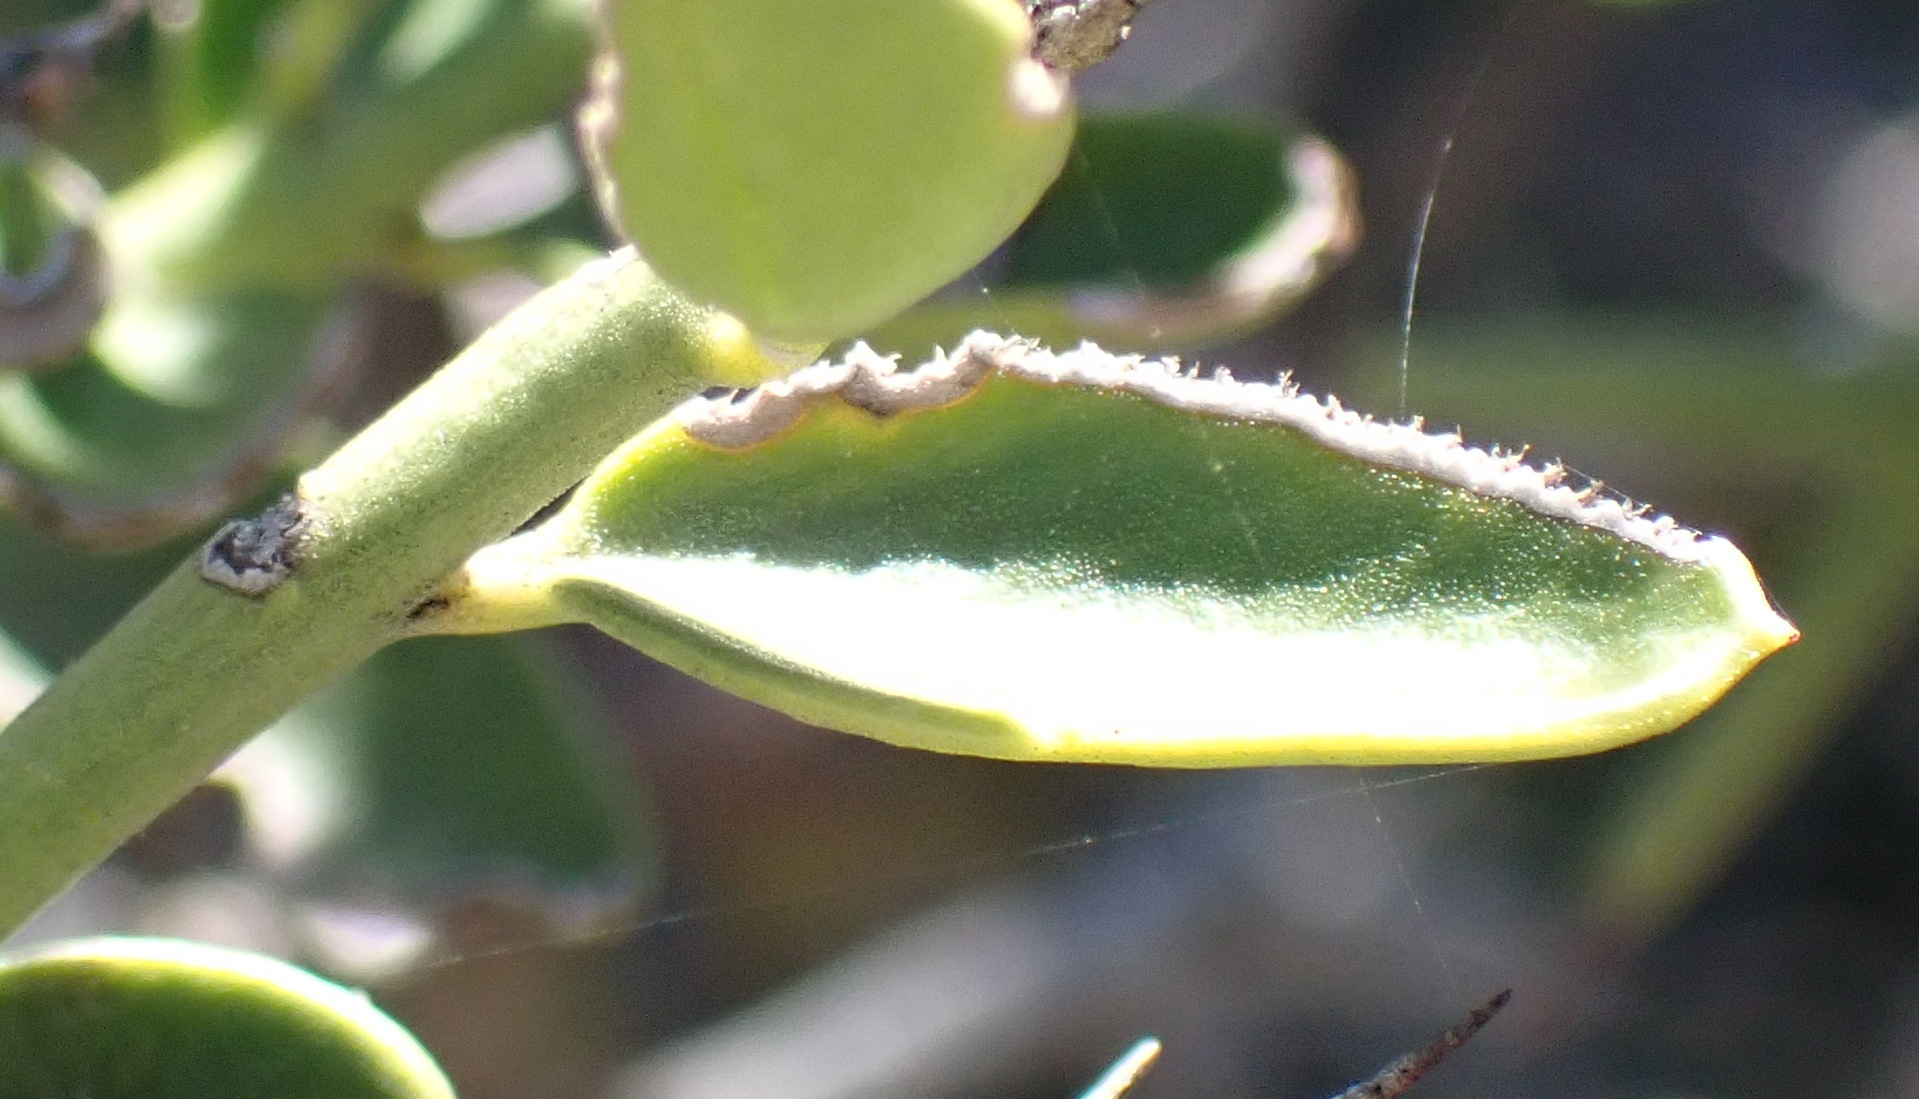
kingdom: Plantae
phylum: Tracheophyta
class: Magnoliopsida
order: Gentianales
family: Apocynaceae
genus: Carissa
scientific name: Carissa haematocarpa
